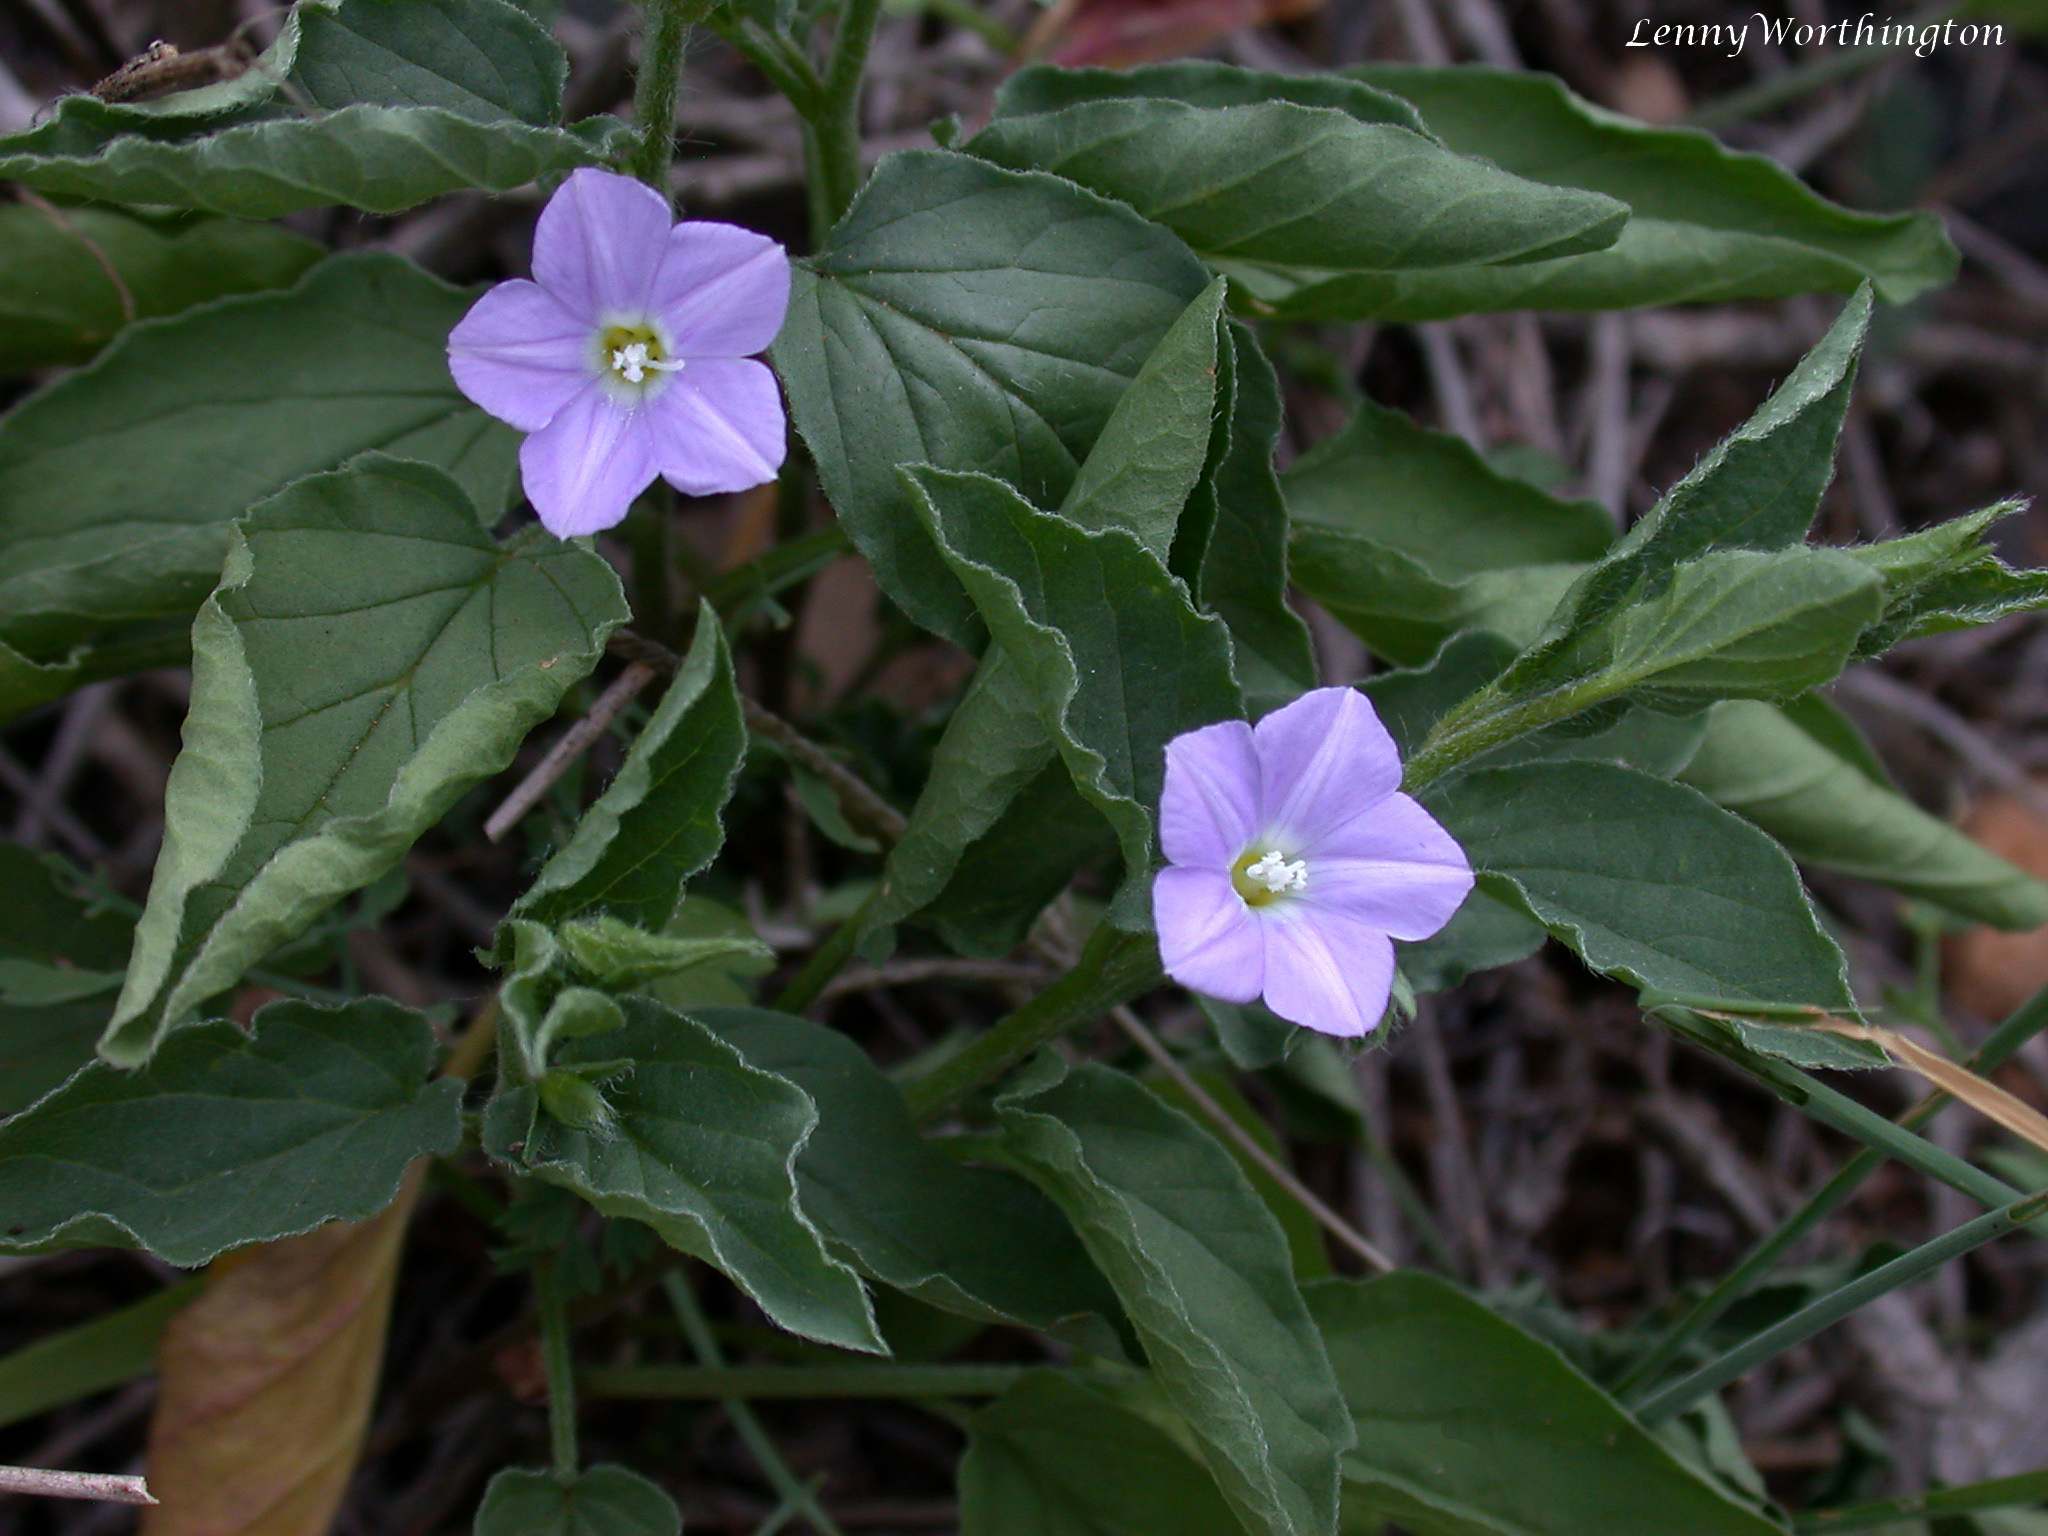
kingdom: Plantae
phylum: Tracheophyta
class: Magnoliopsida
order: Solanales
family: Convolvulaceae
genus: Convolvulus
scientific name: Convolvulus siculus
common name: Small blue-convolvulus
